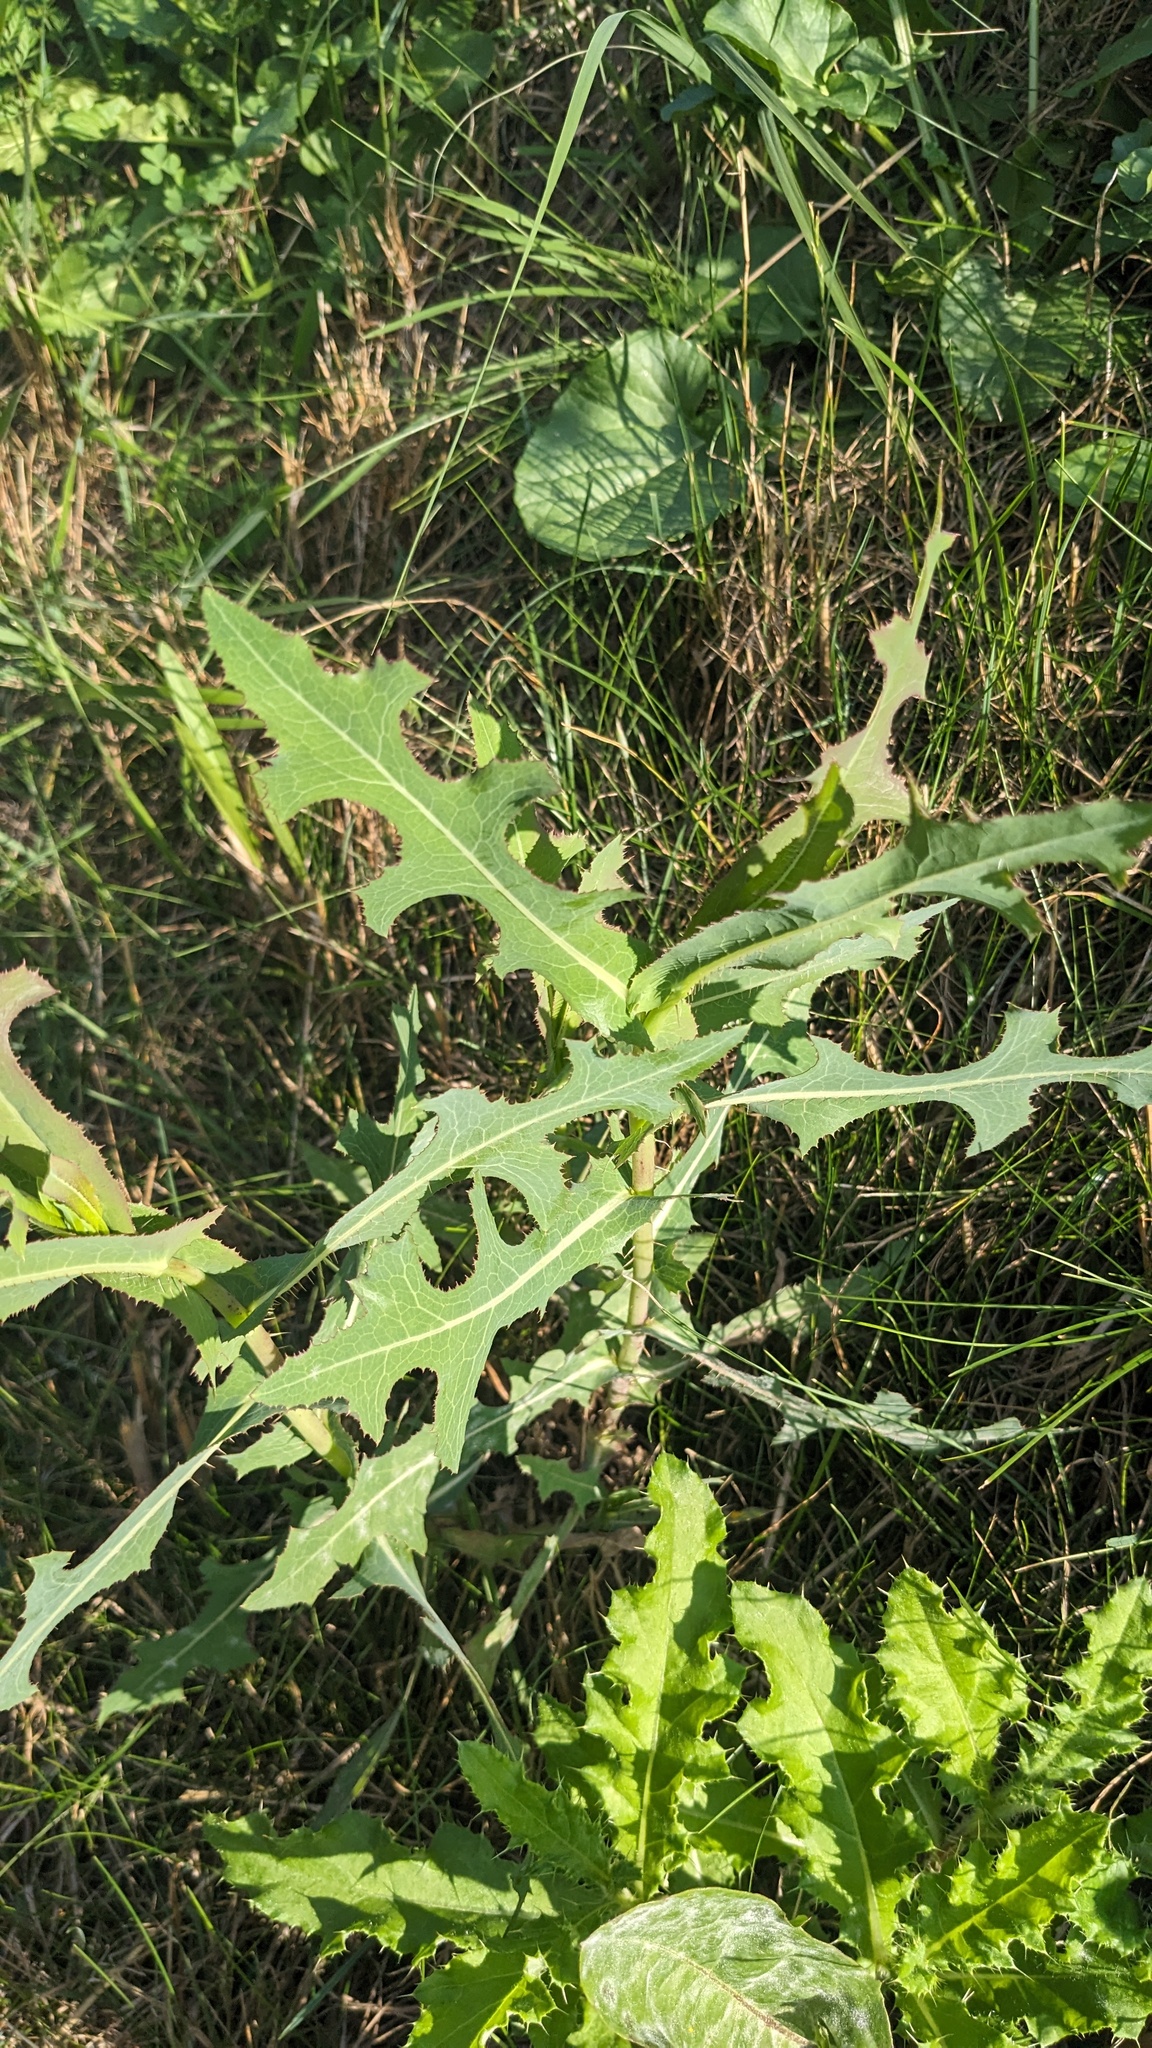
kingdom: Plantae
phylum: Tracheophyta
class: Magnoliopsida
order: Asterales
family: Asteraceae
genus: Lactuca
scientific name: Lactuca serriola
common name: Prickly lettuce
